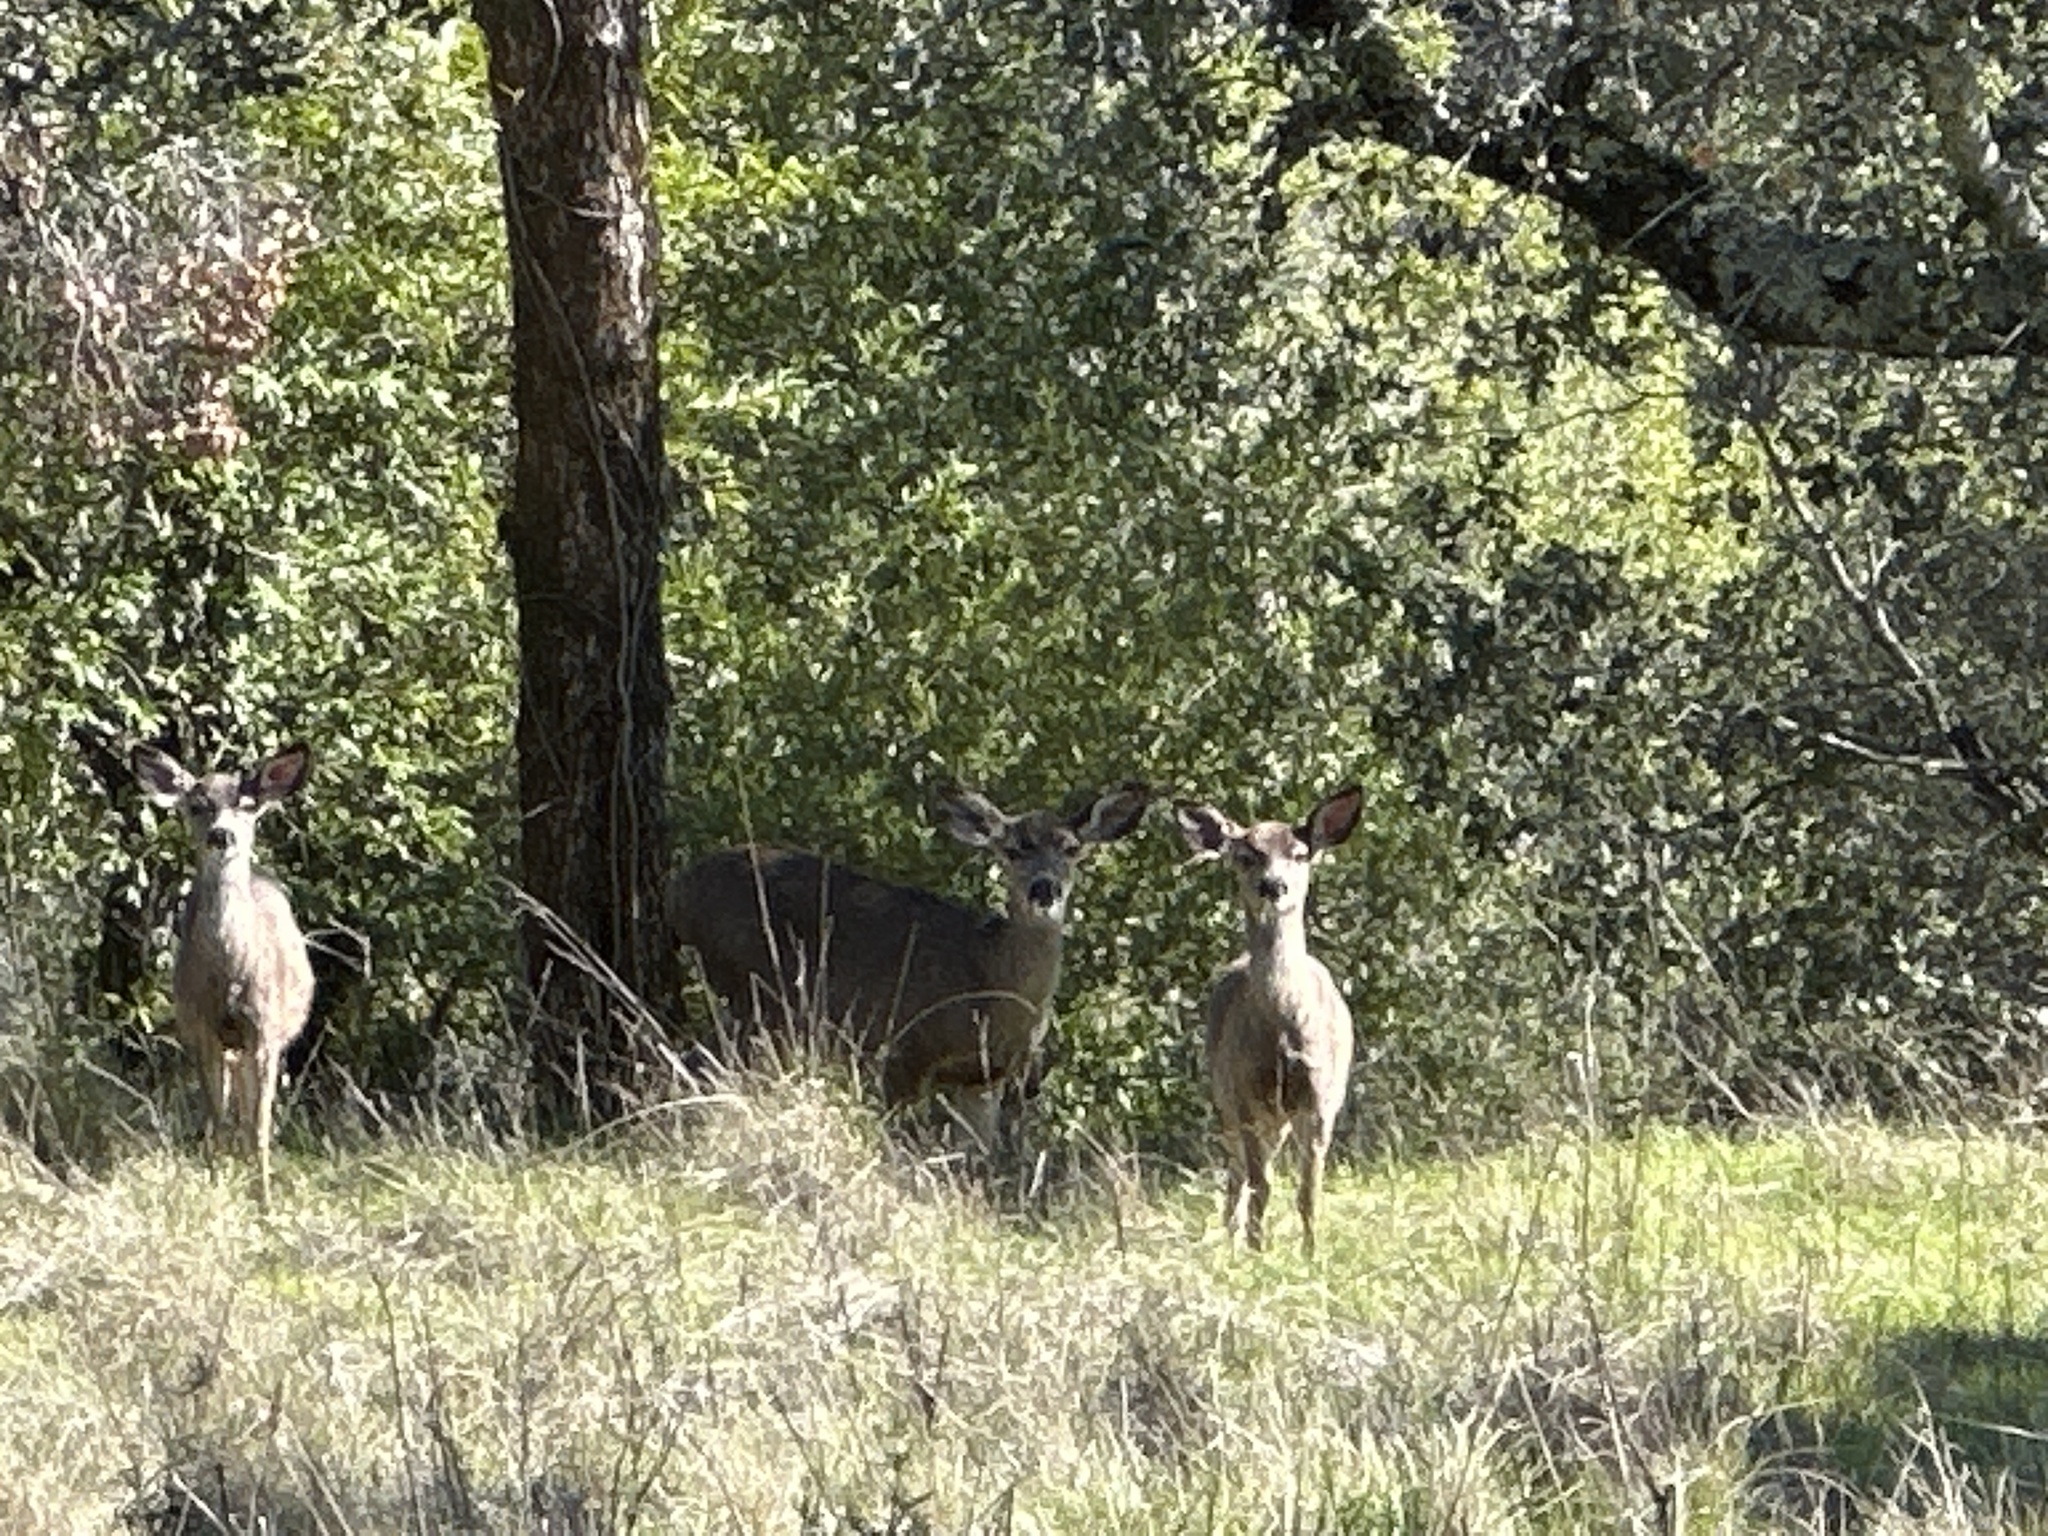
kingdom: Animalia
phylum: Chordata
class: Mammalia
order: Artiodactyla
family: Cervidae
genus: Odocoileus
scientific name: Odocoileus hemionus
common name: Mule deer
